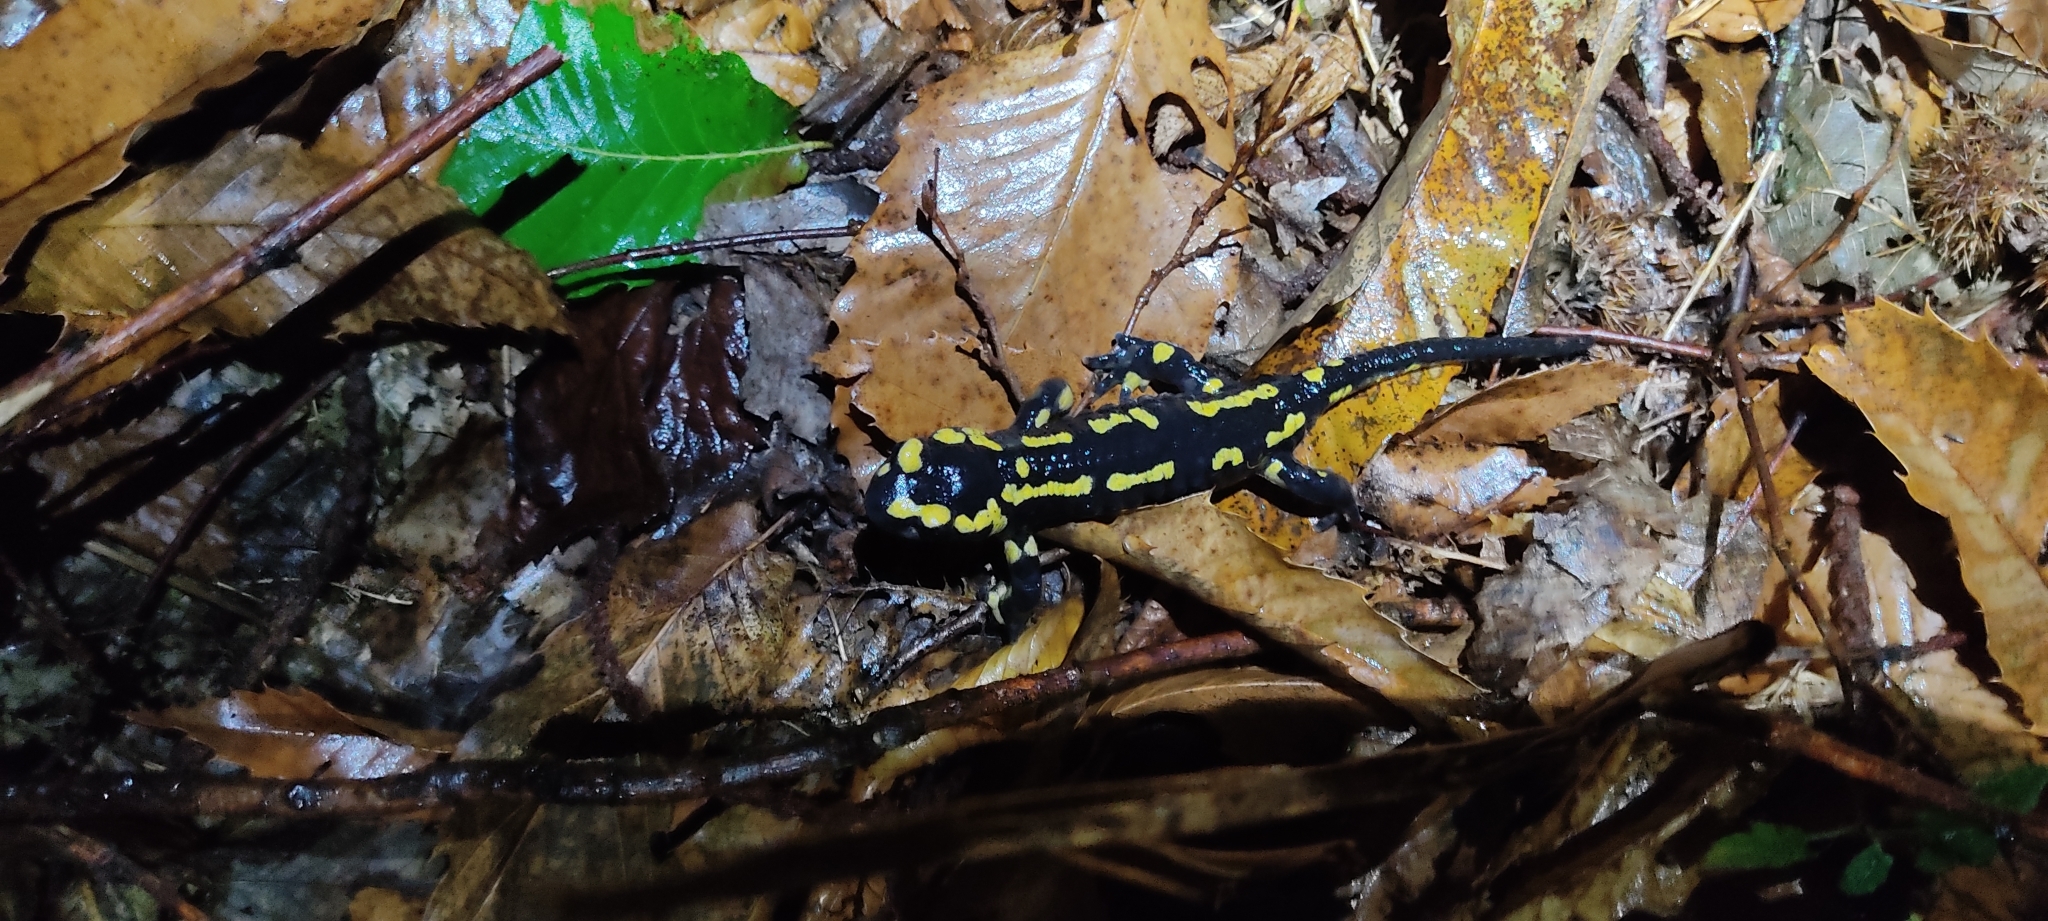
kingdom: Animalia
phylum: Chordata
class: Amphibia
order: Caudata
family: Salamandridae
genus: Salamandra
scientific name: Salamandra salamandra
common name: Fire salamander
